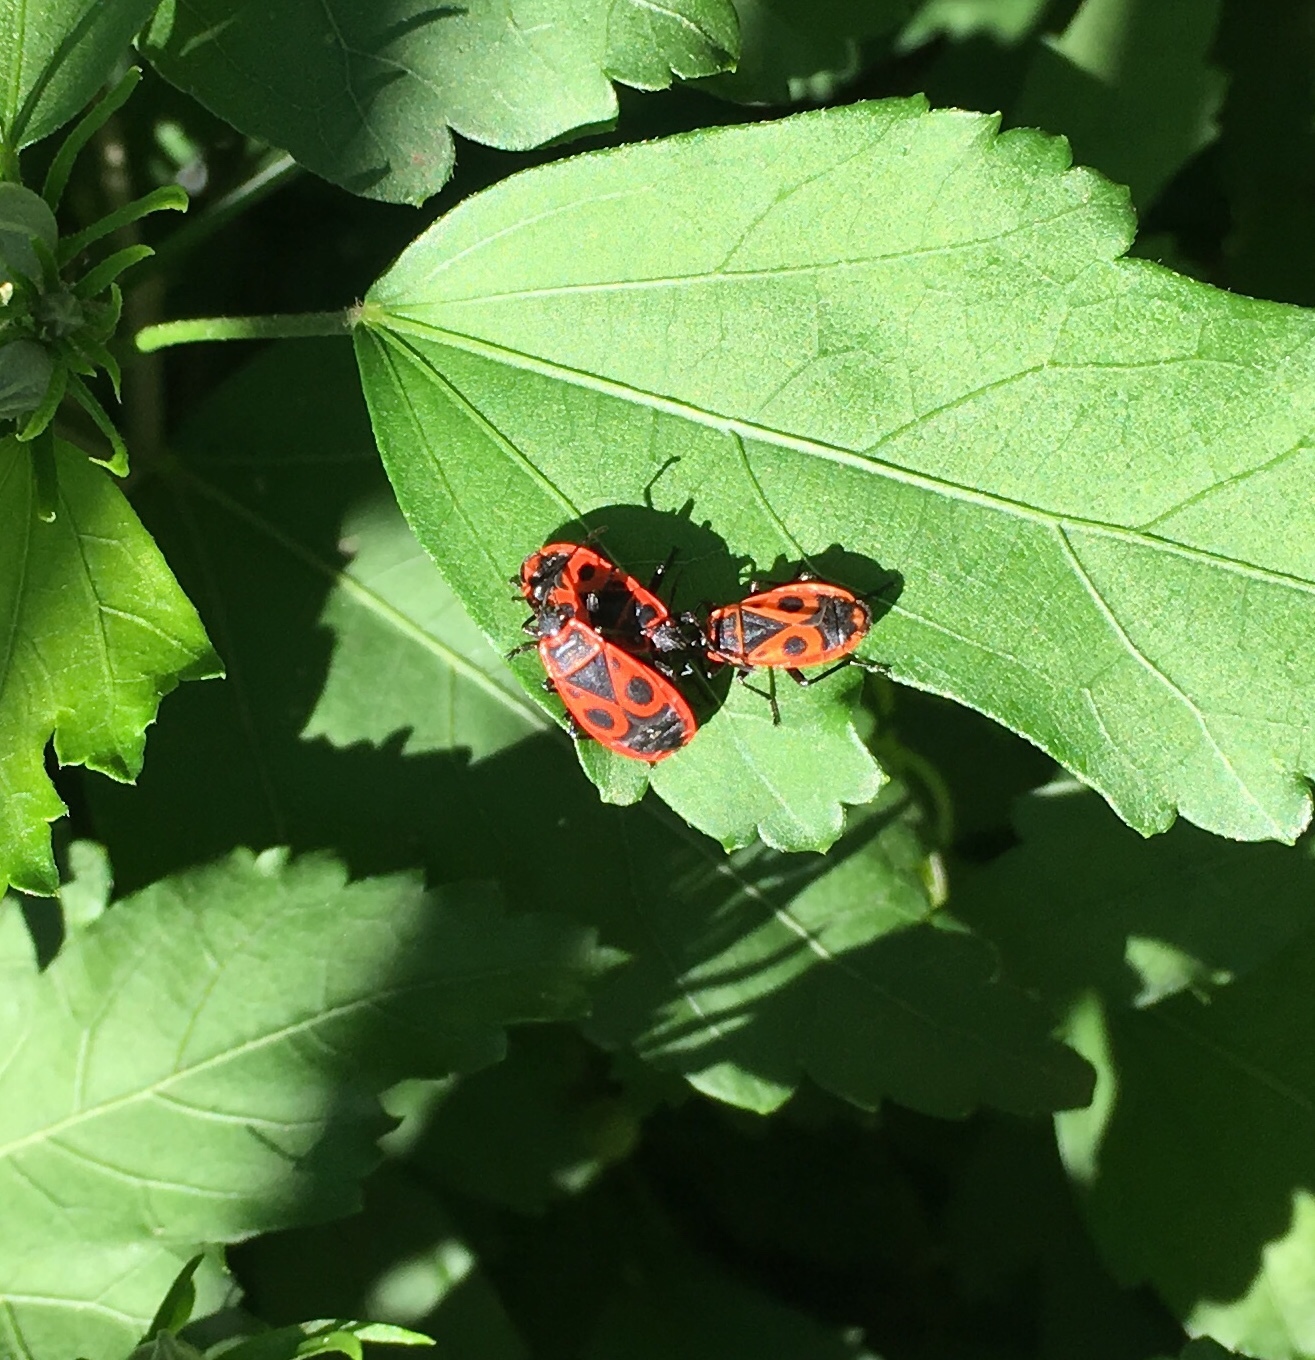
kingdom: Animalia
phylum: Arthropoda
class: Insecta
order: Hemiptera
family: Pyrrhocoridae
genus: Pyrrhocoris
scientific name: Pyrrhocoris apterus
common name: Firebug
